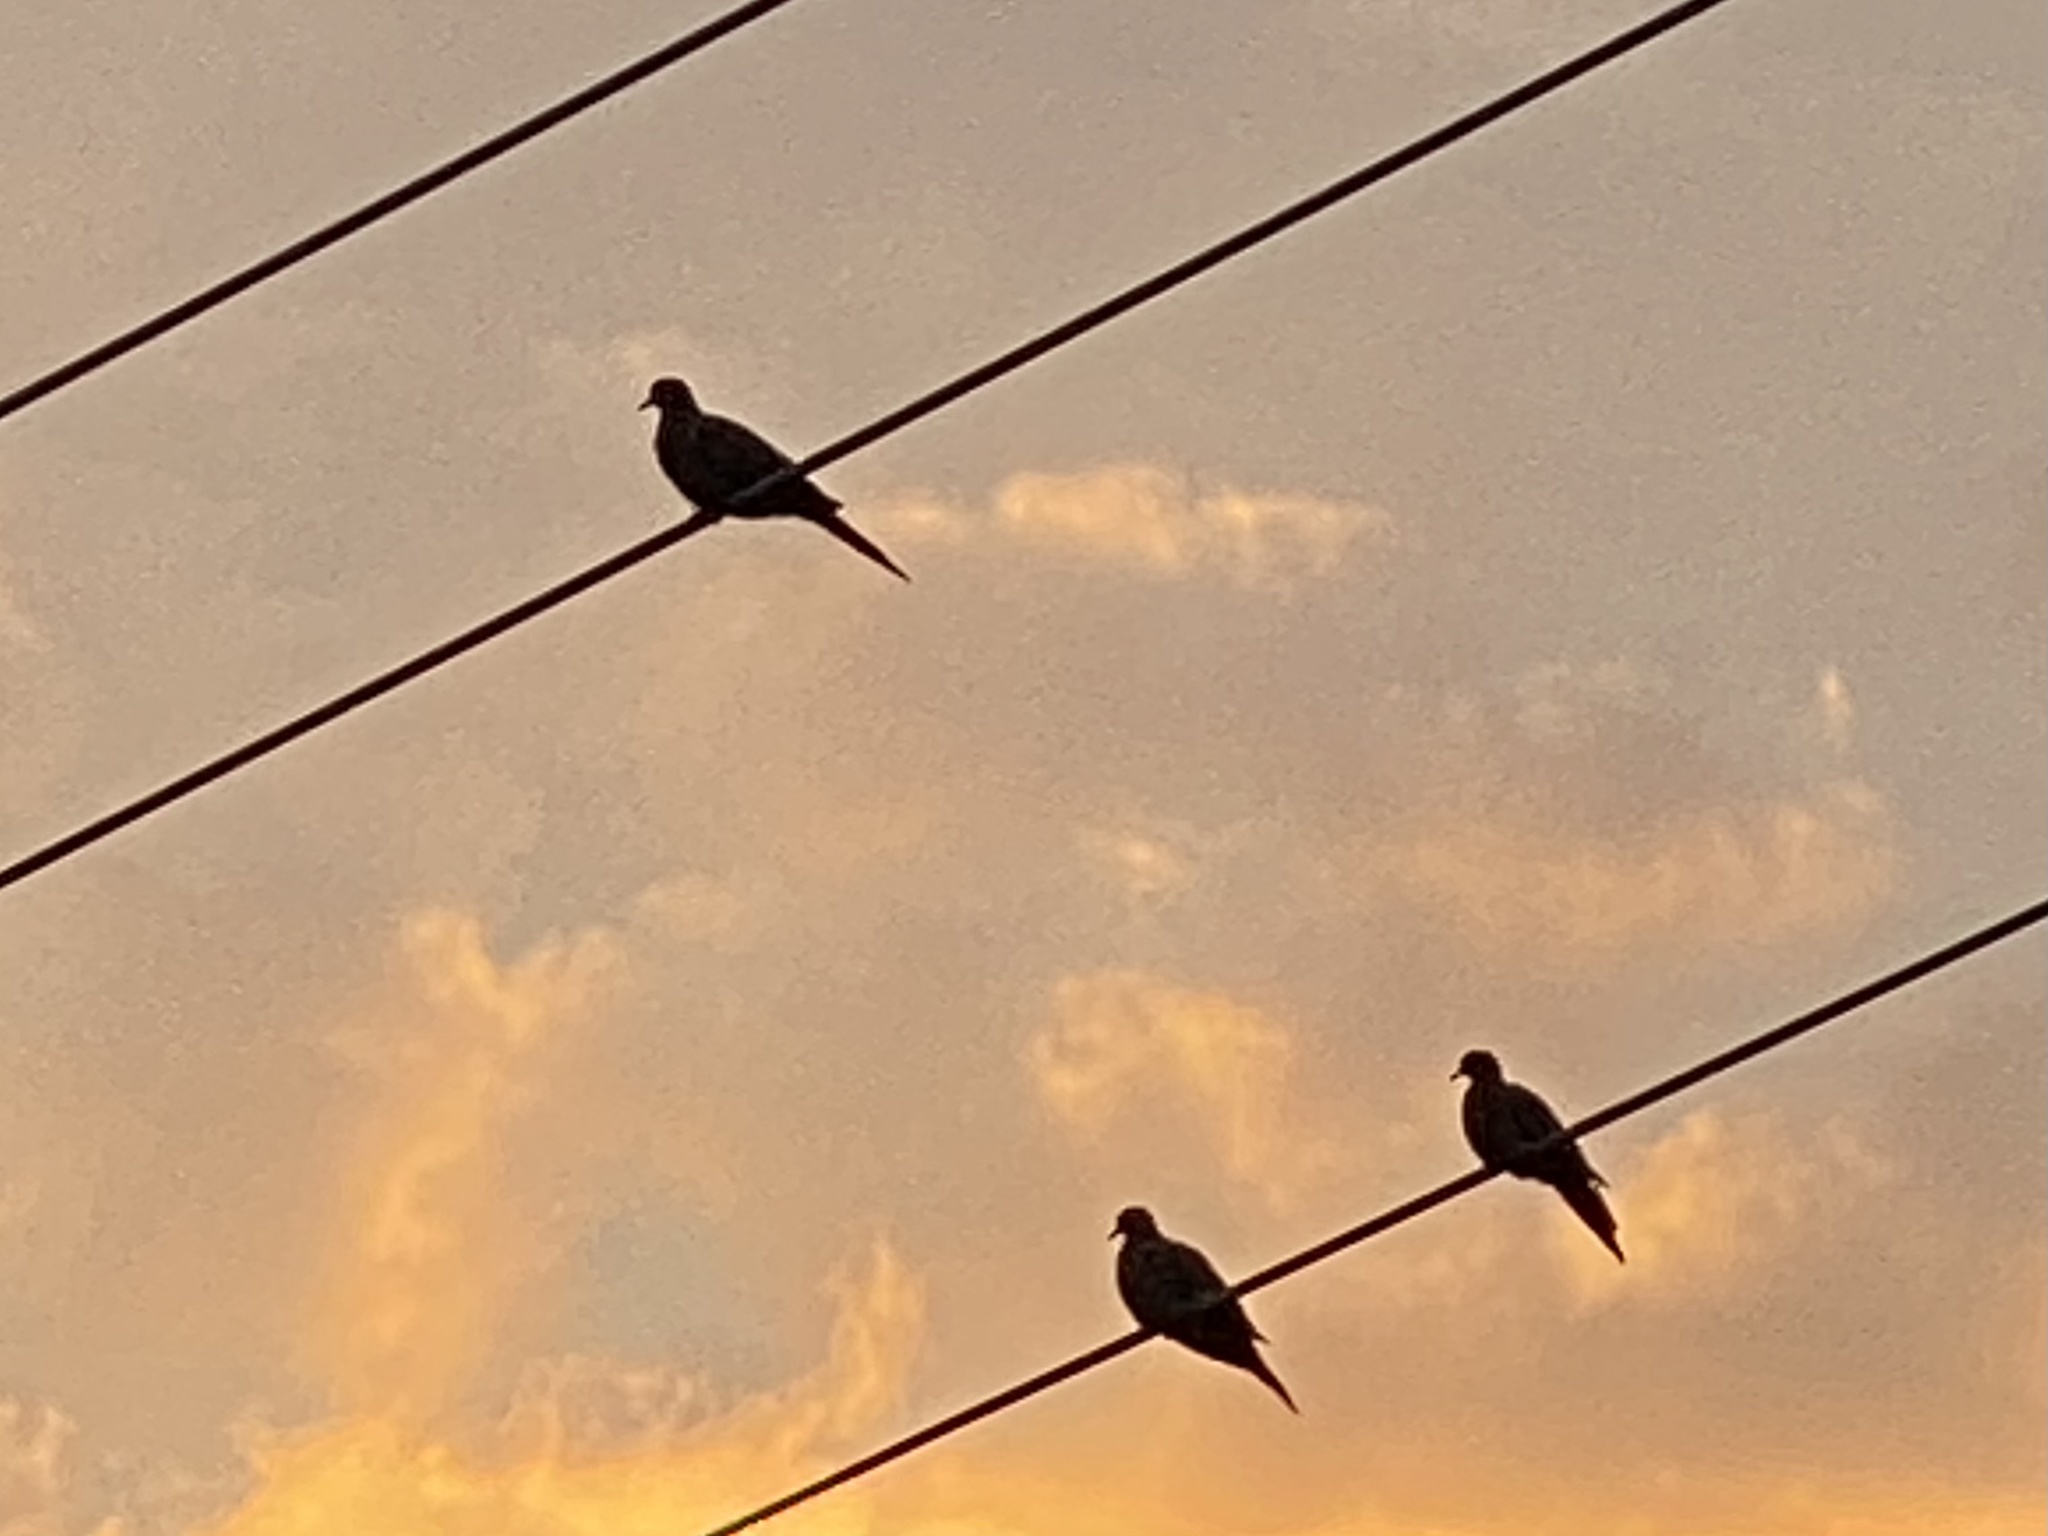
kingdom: Animalia
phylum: Chordata
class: Aves
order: Columbiformes
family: Columbidae
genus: Zenaida
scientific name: Zenaida macroura
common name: Mourning dove
